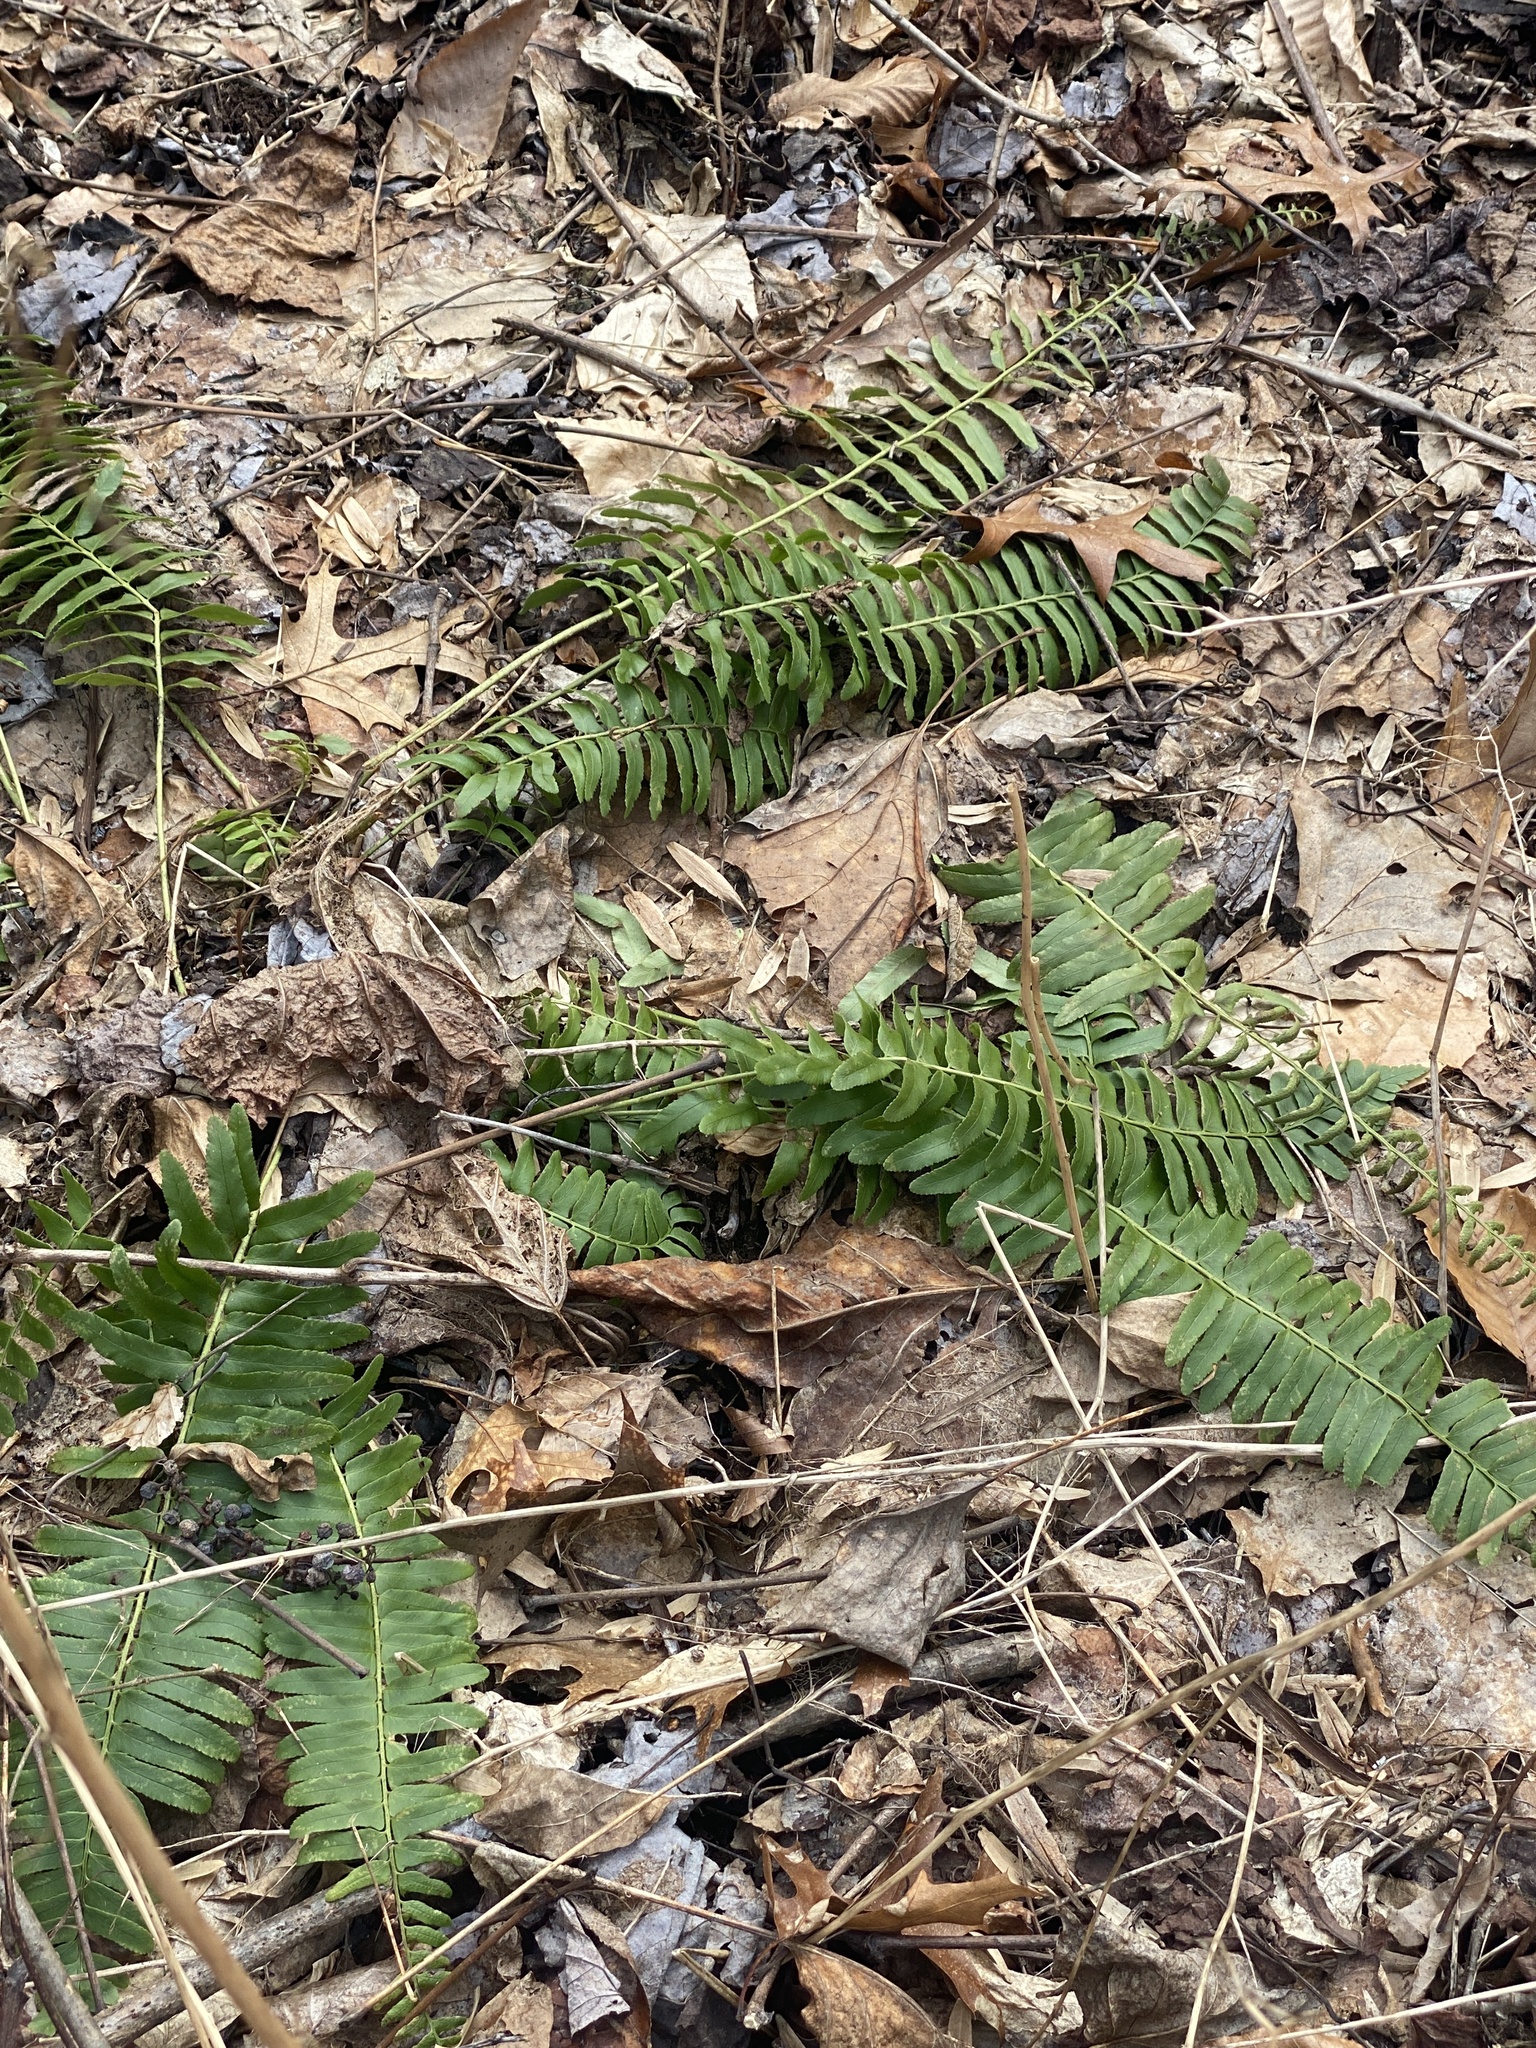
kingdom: Plantae
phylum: Tracheophyta
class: Polypodiopsida
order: Polypodiales
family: Dryopteridaceae
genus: Polystichum
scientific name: Polystichum acrostichoides
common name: Christmas fern
